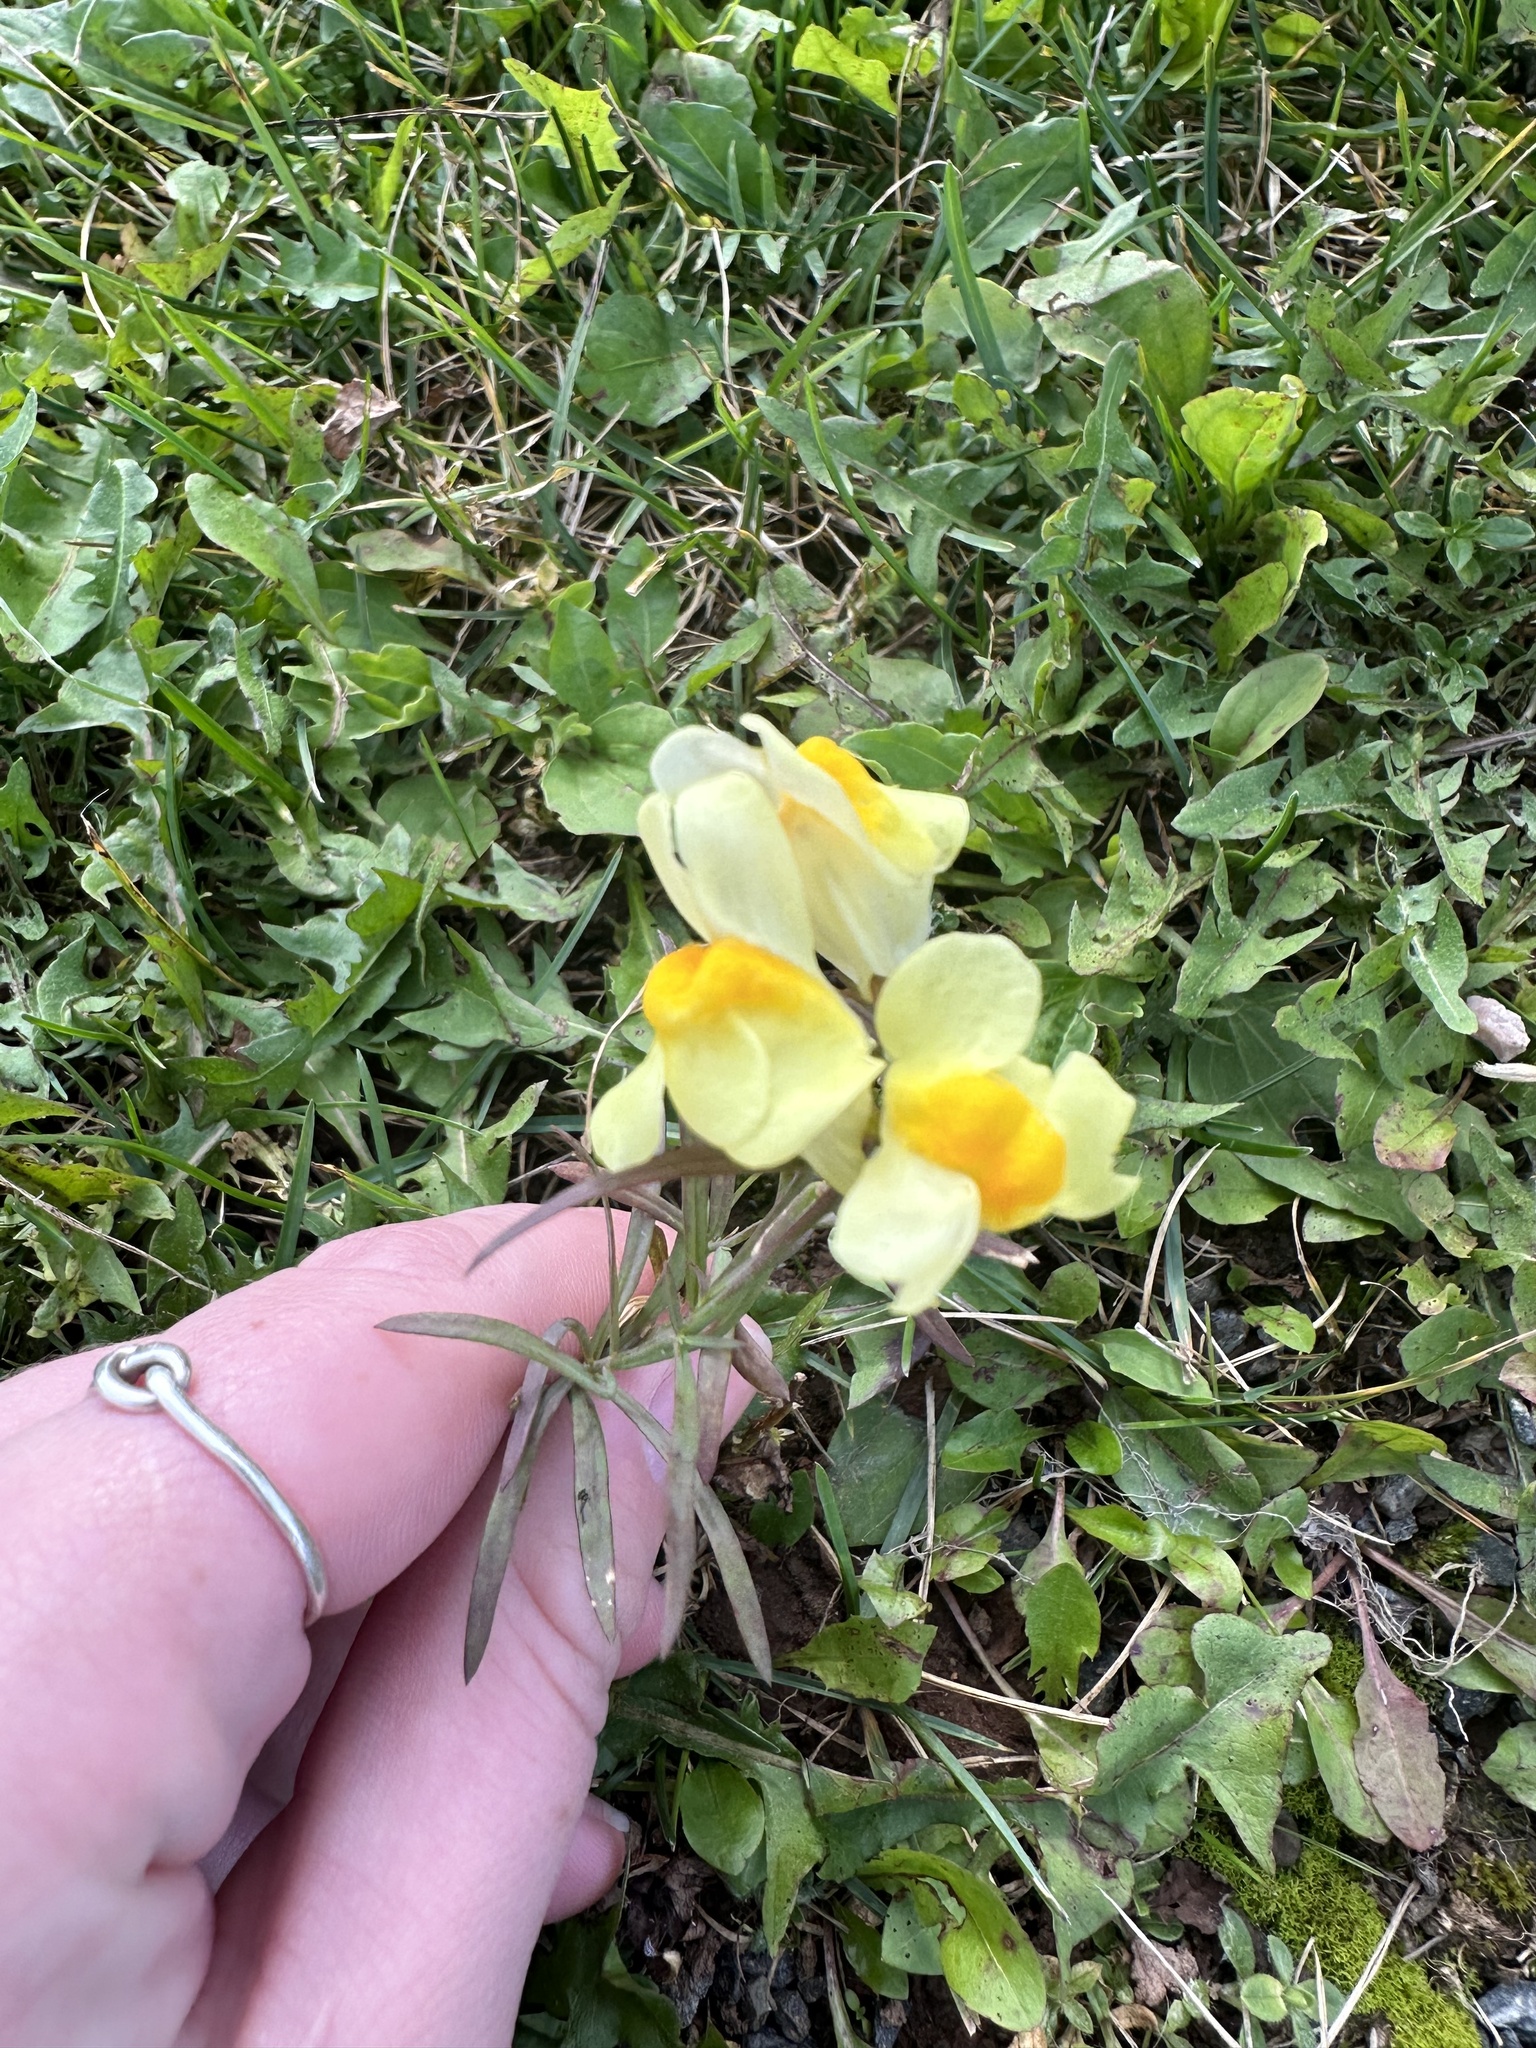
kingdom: Plantae
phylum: Tracheophyta
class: Magnoliopsida
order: Lamiales
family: Plantaginaceae
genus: Linaria
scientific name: Linaria vulgaris
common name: Butter and eggs
